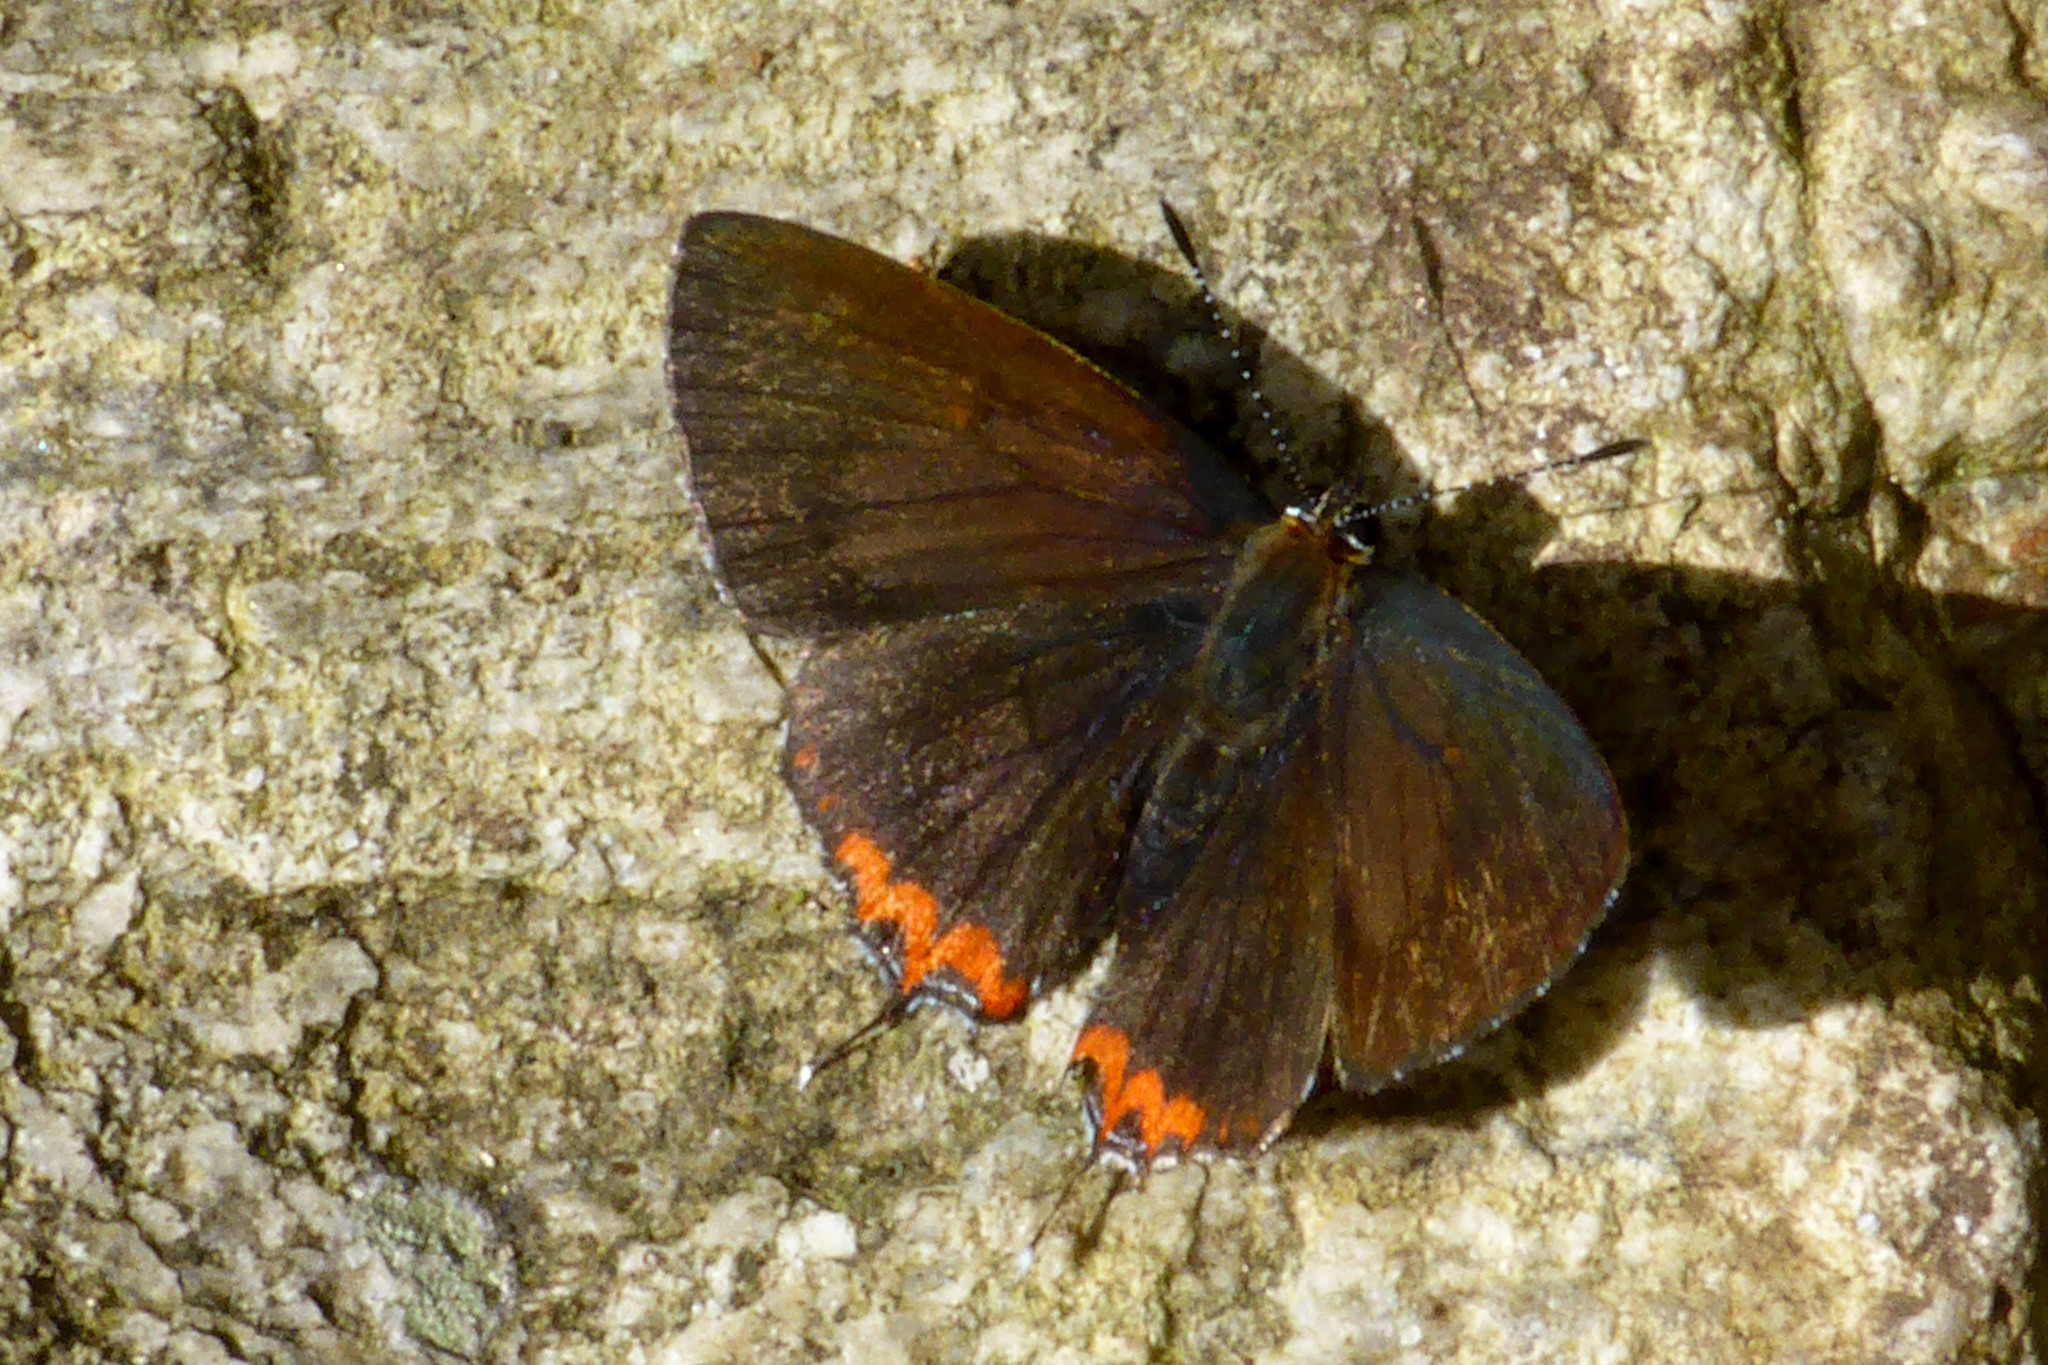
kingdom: Animalia
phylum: Arthropoda
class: Insecta
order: Lepidoptera
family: Lycaenidae
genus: Heliophorus
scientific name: Heliophorus indicus
